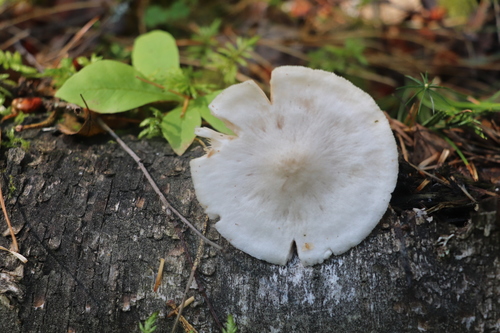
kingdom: Fungi
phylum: Basidiomycota
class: Agaricomycetes
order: Agaricales
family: Pluteaceae
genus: Pluteus
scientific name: Pluteus plautus
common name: Satin shield
